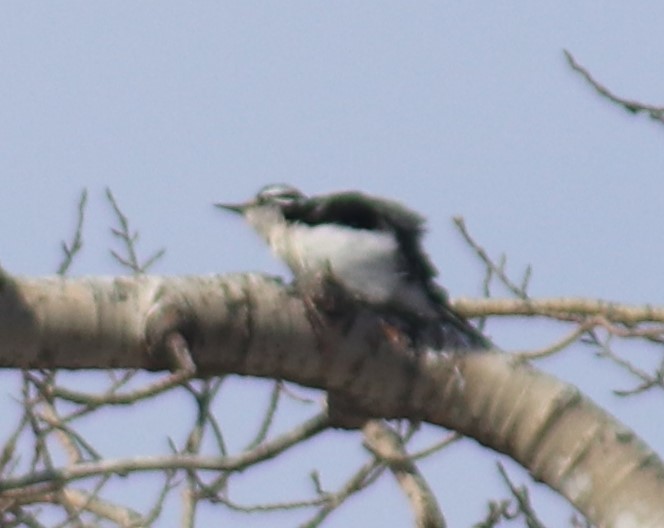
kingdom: Animalia
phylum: Chordata
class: Aves
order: Piciformes
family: Picidae
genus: Leuconotopicus
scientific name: Leuconotopicus villosus
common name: Hairy woodpecker
